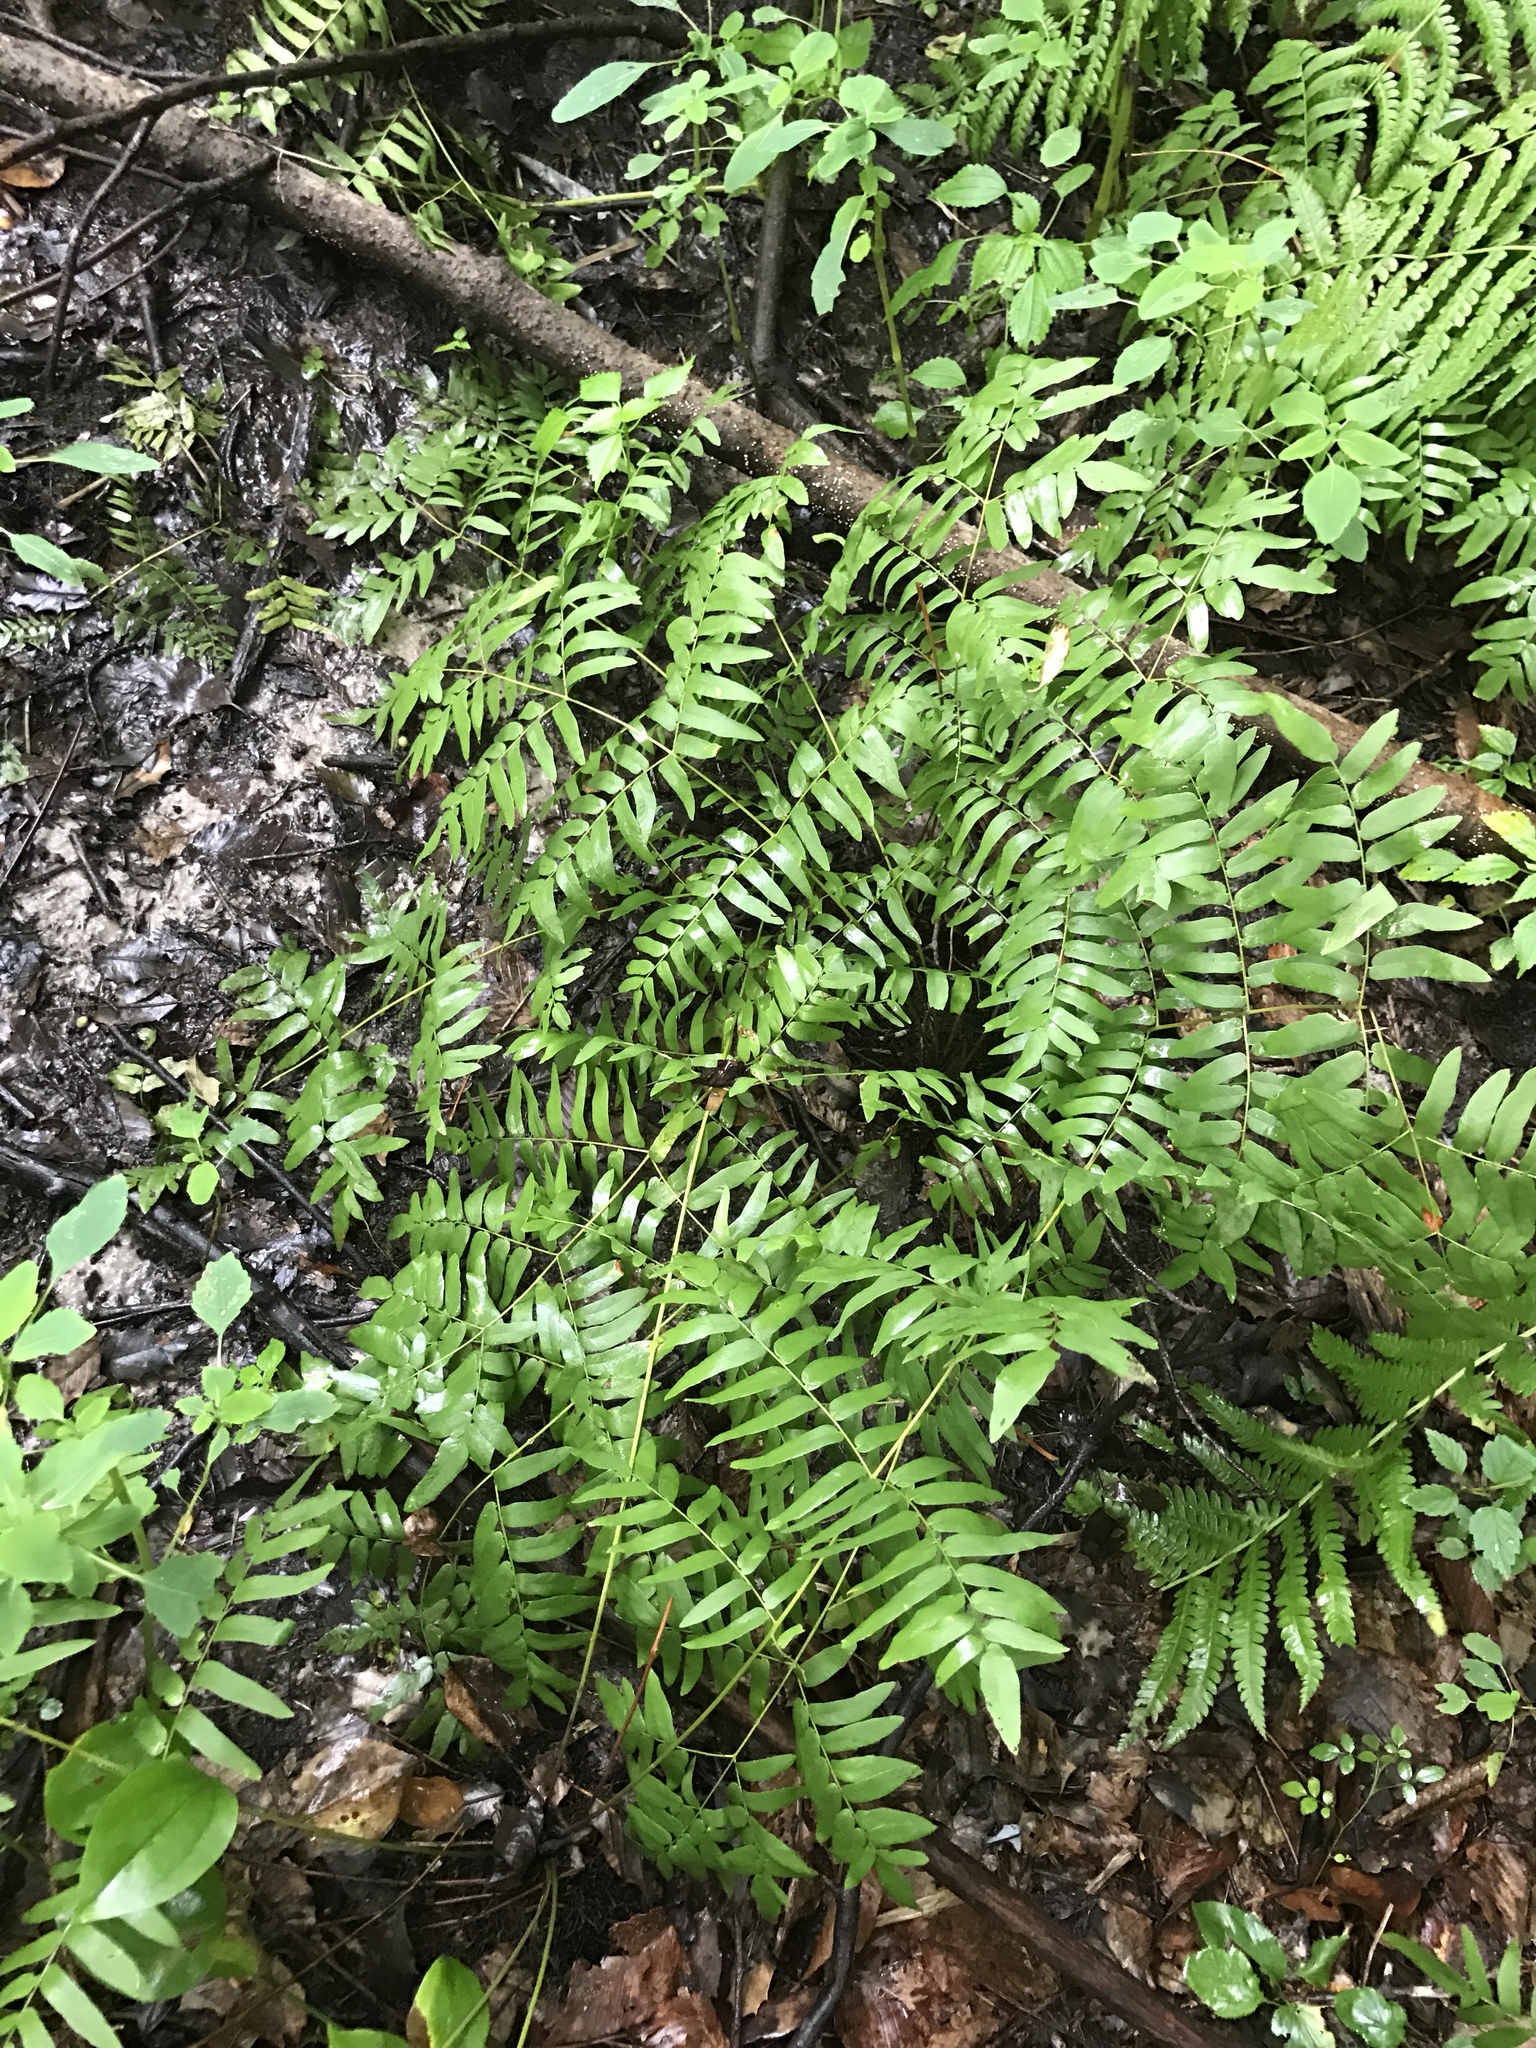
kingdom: Plantae
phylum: Tracheophyta
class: Polypodiopsida
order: Osmundales
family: Osmundaceae
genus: Osmunda
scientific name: Osmunda spectabilis
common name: American royal fern
